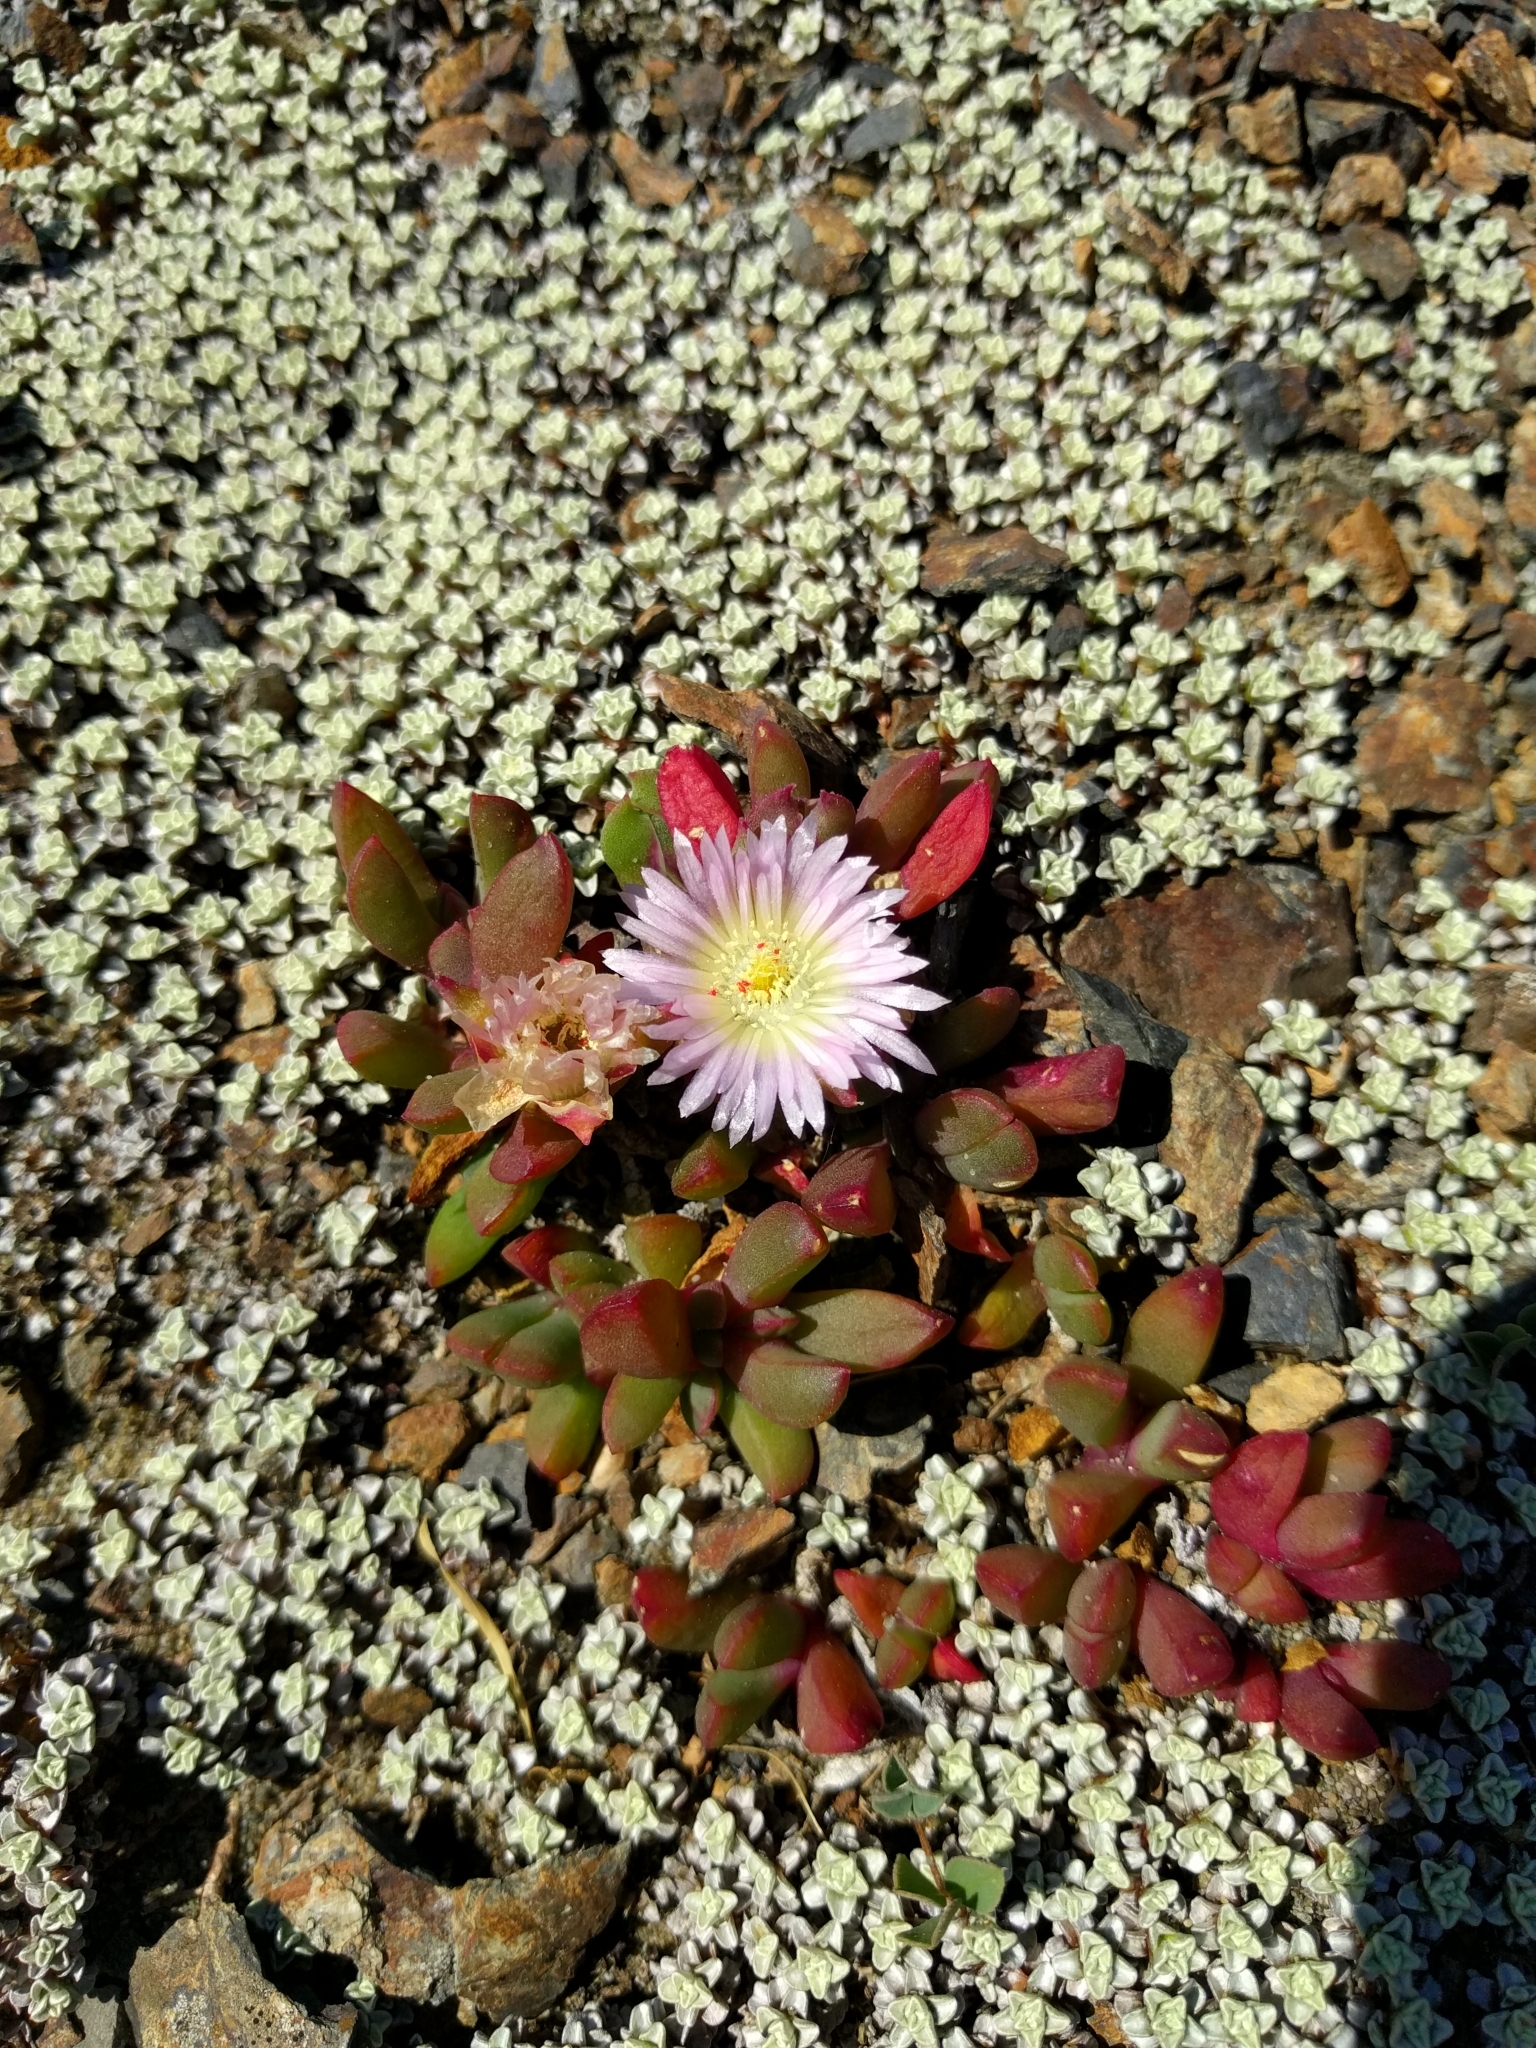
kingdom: Plantae
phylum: Tracheophyta
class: Magnoliopsida
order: Caryophyllales
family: Aizoaceae
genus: Disphyma
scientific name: Disphyma australe
